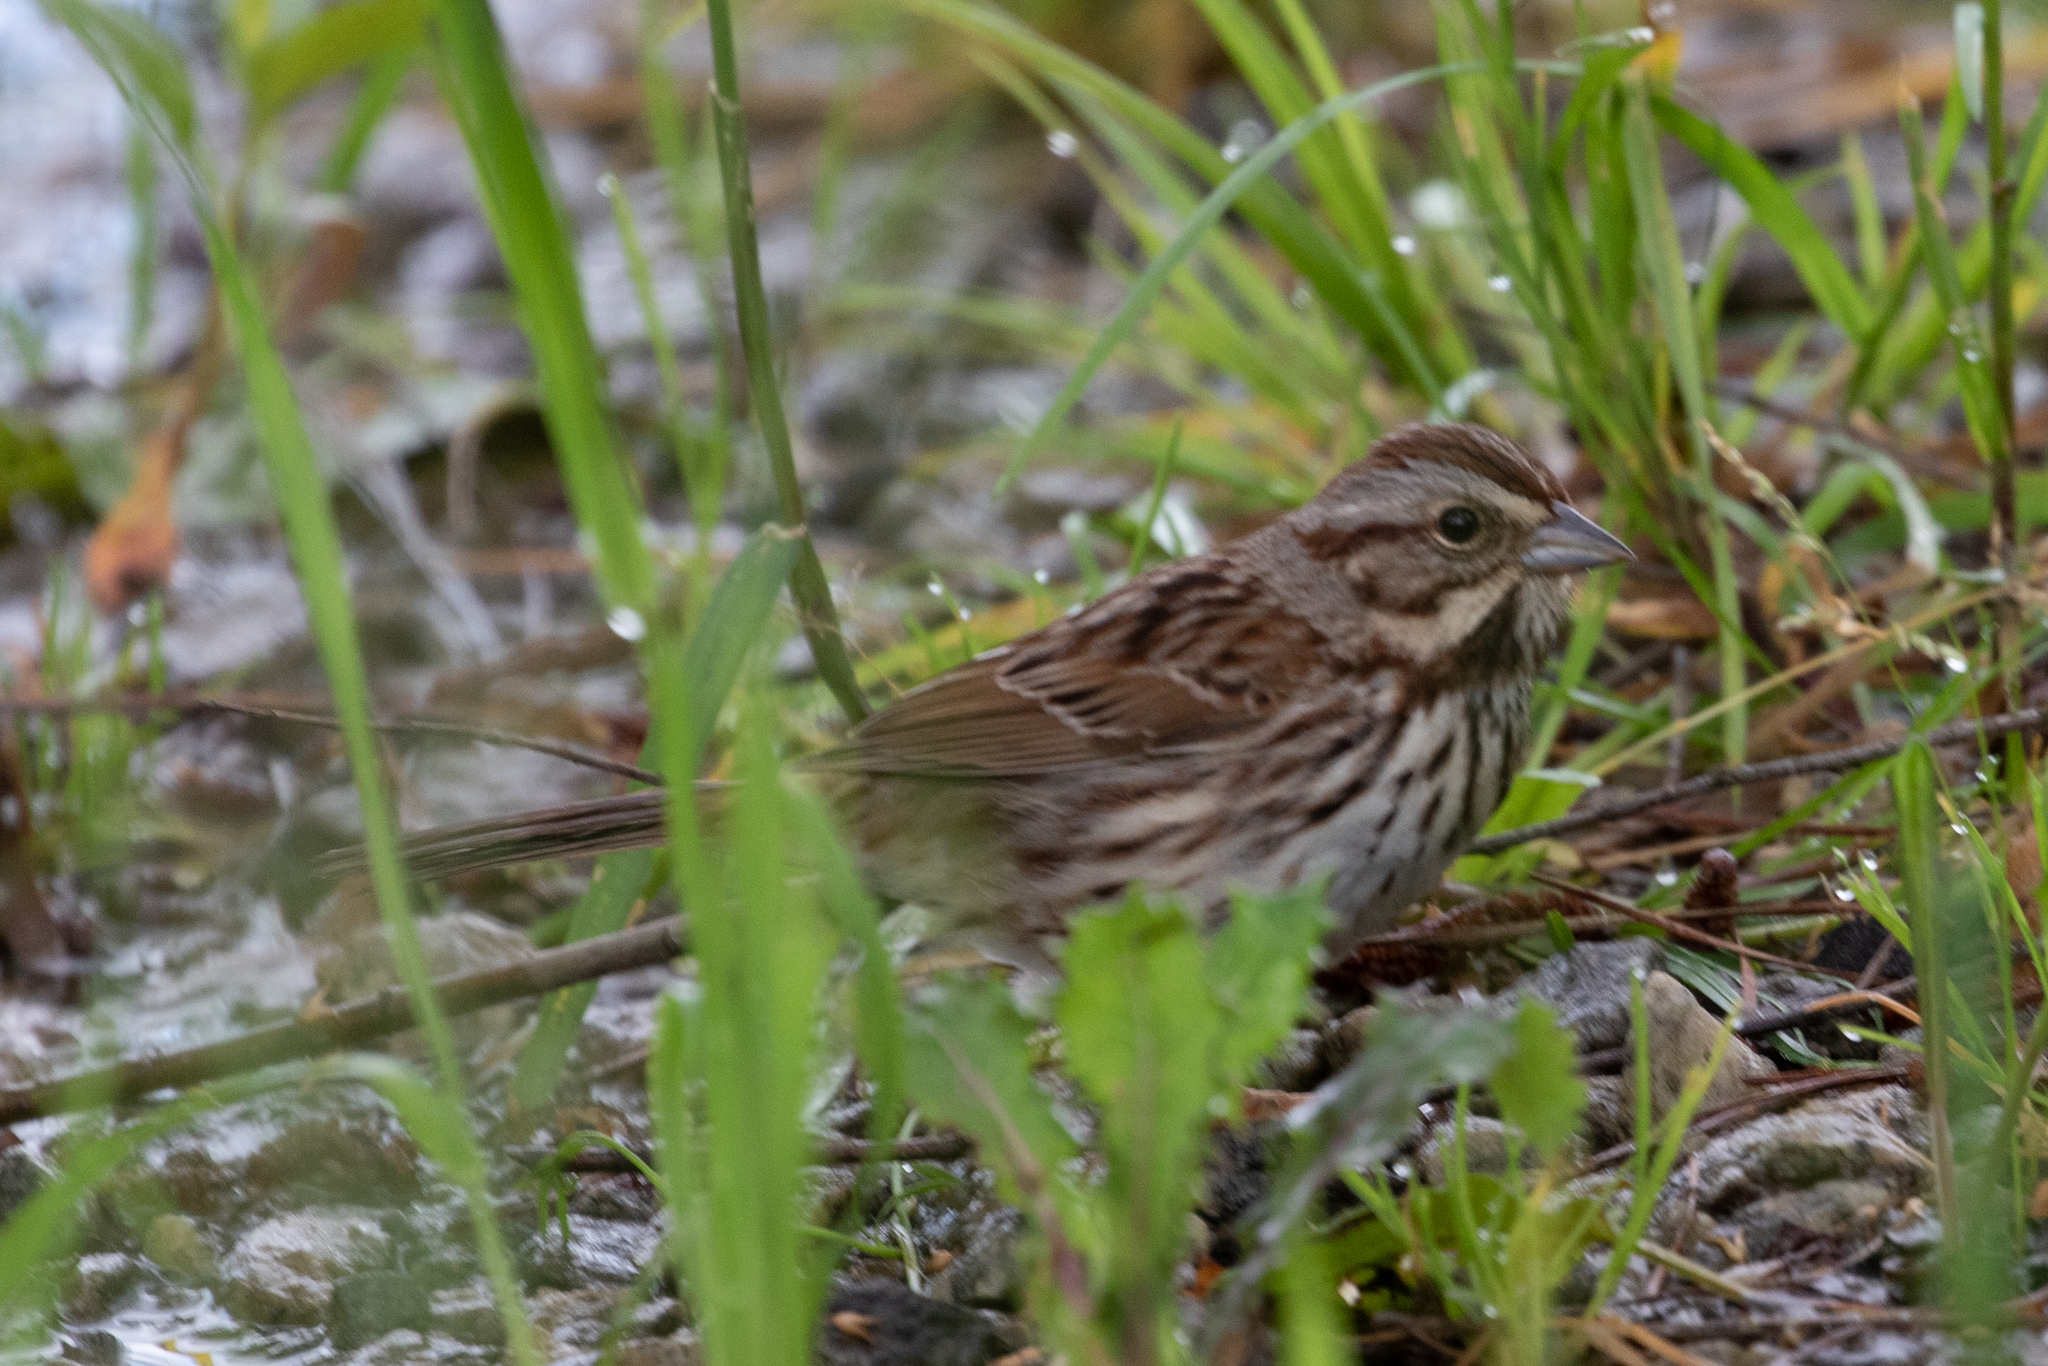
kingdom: Animalia
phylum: Chordata
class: Aves
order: Passeriformes
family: Passerellidae
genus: Melospiza
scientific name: Melospiza melodia
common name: Song sparrow
